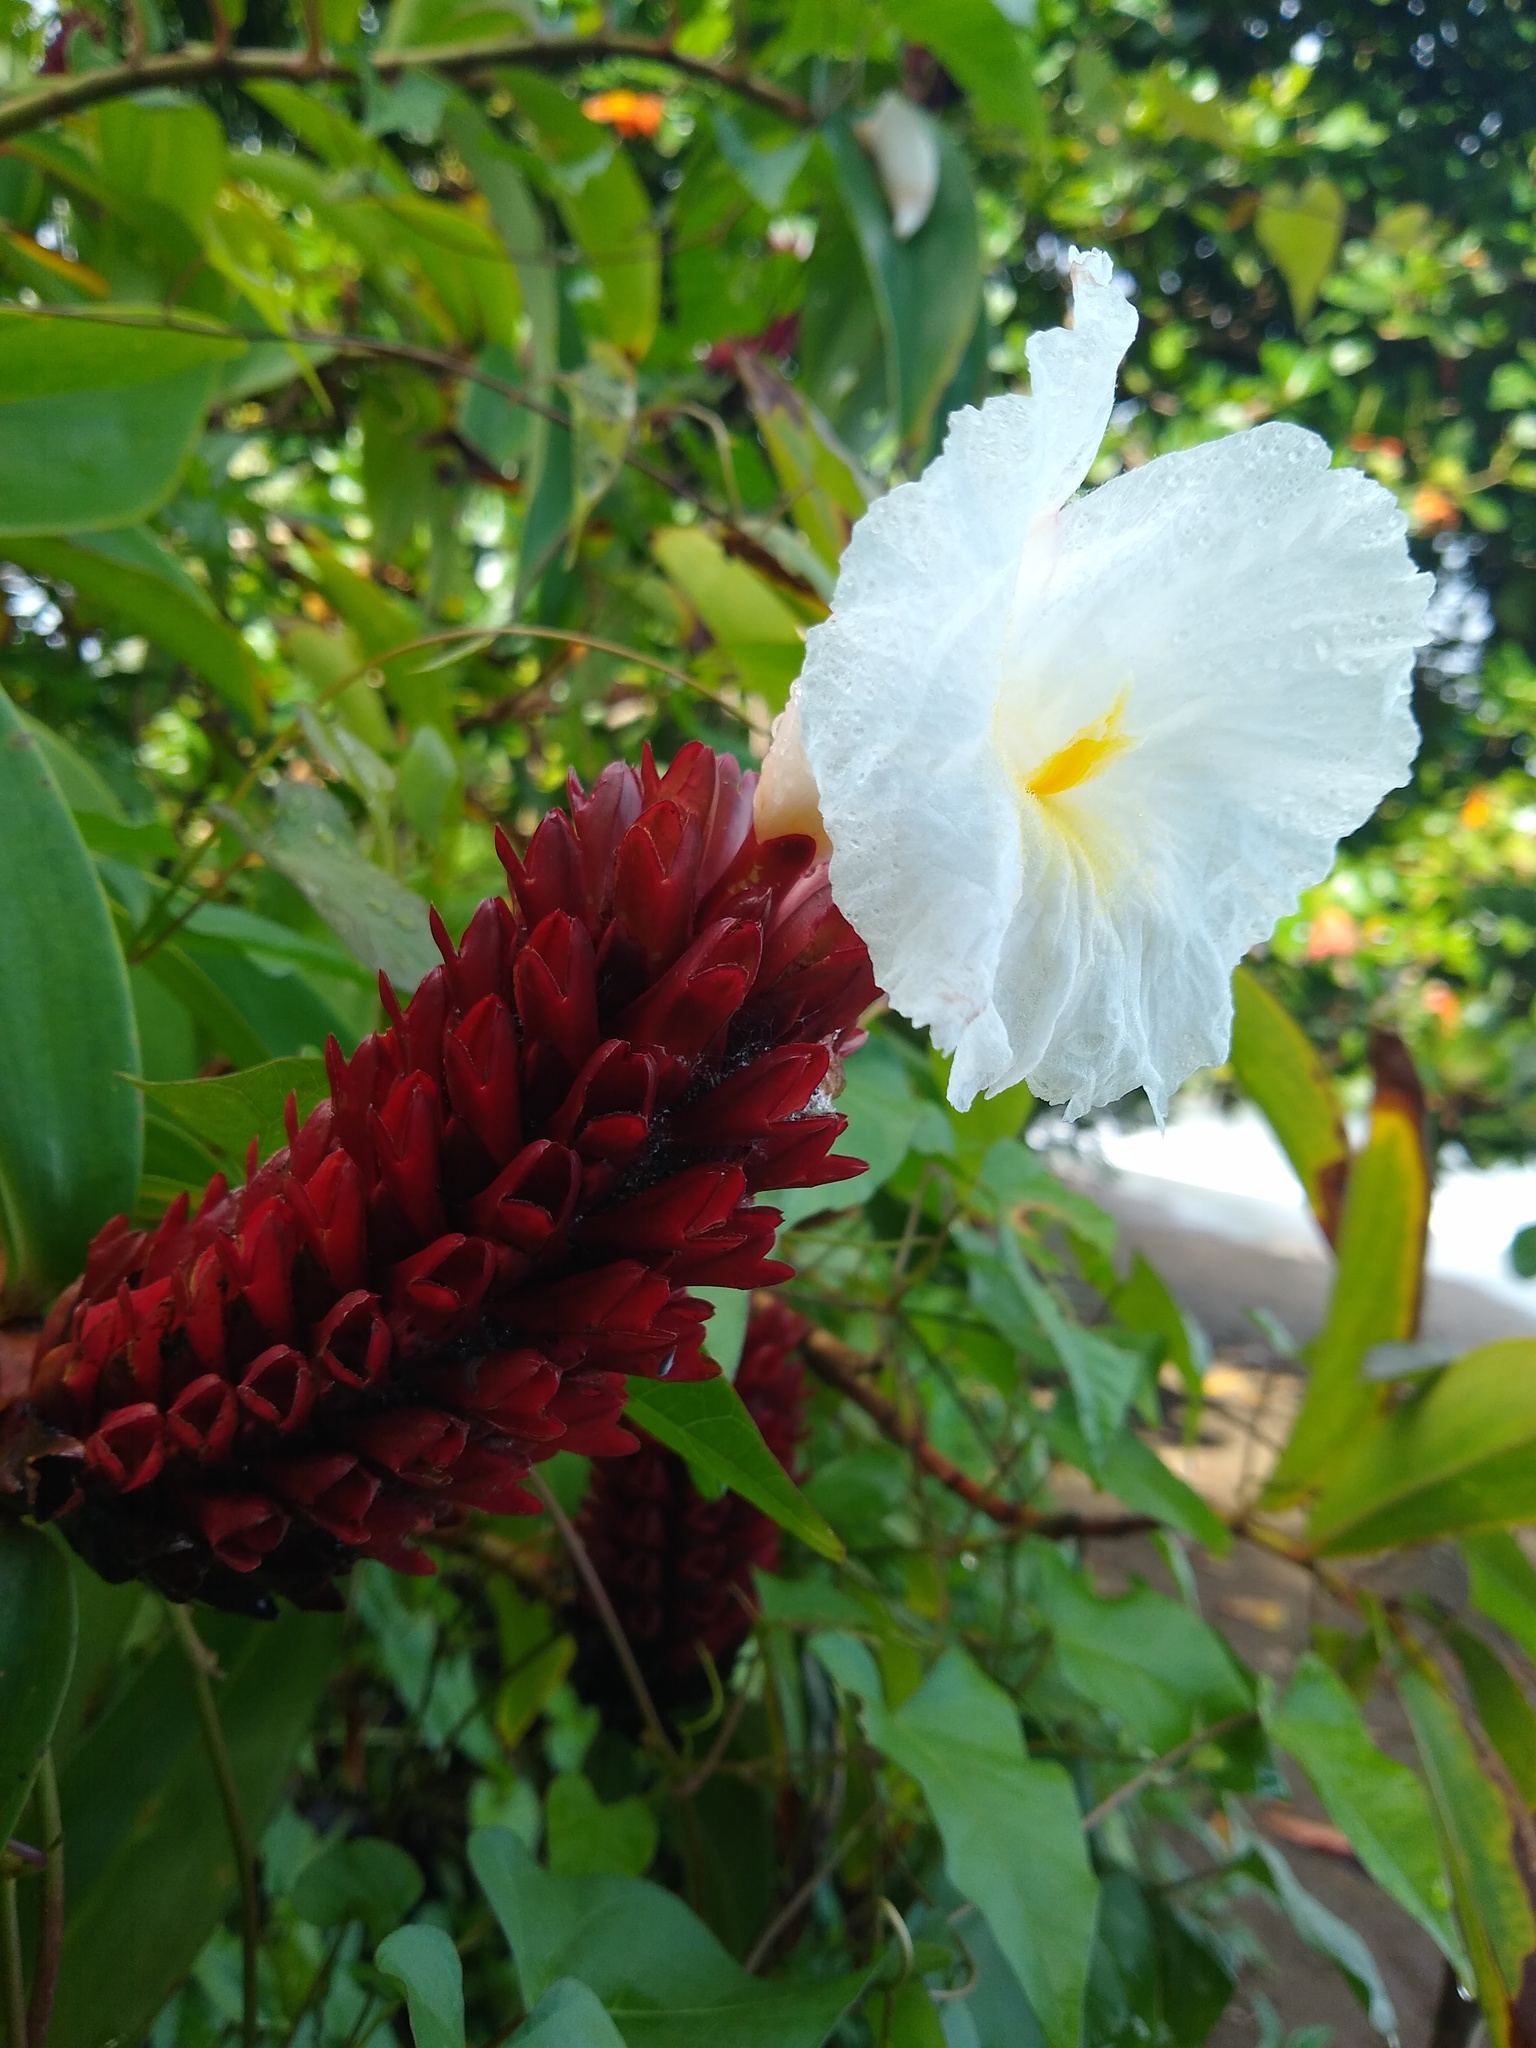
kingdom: Plantae
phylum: Tracheophyta
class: Liliopsida
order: Zingiberales
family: Costaceae
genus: Hellenia
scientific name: Hellenia speciosa
